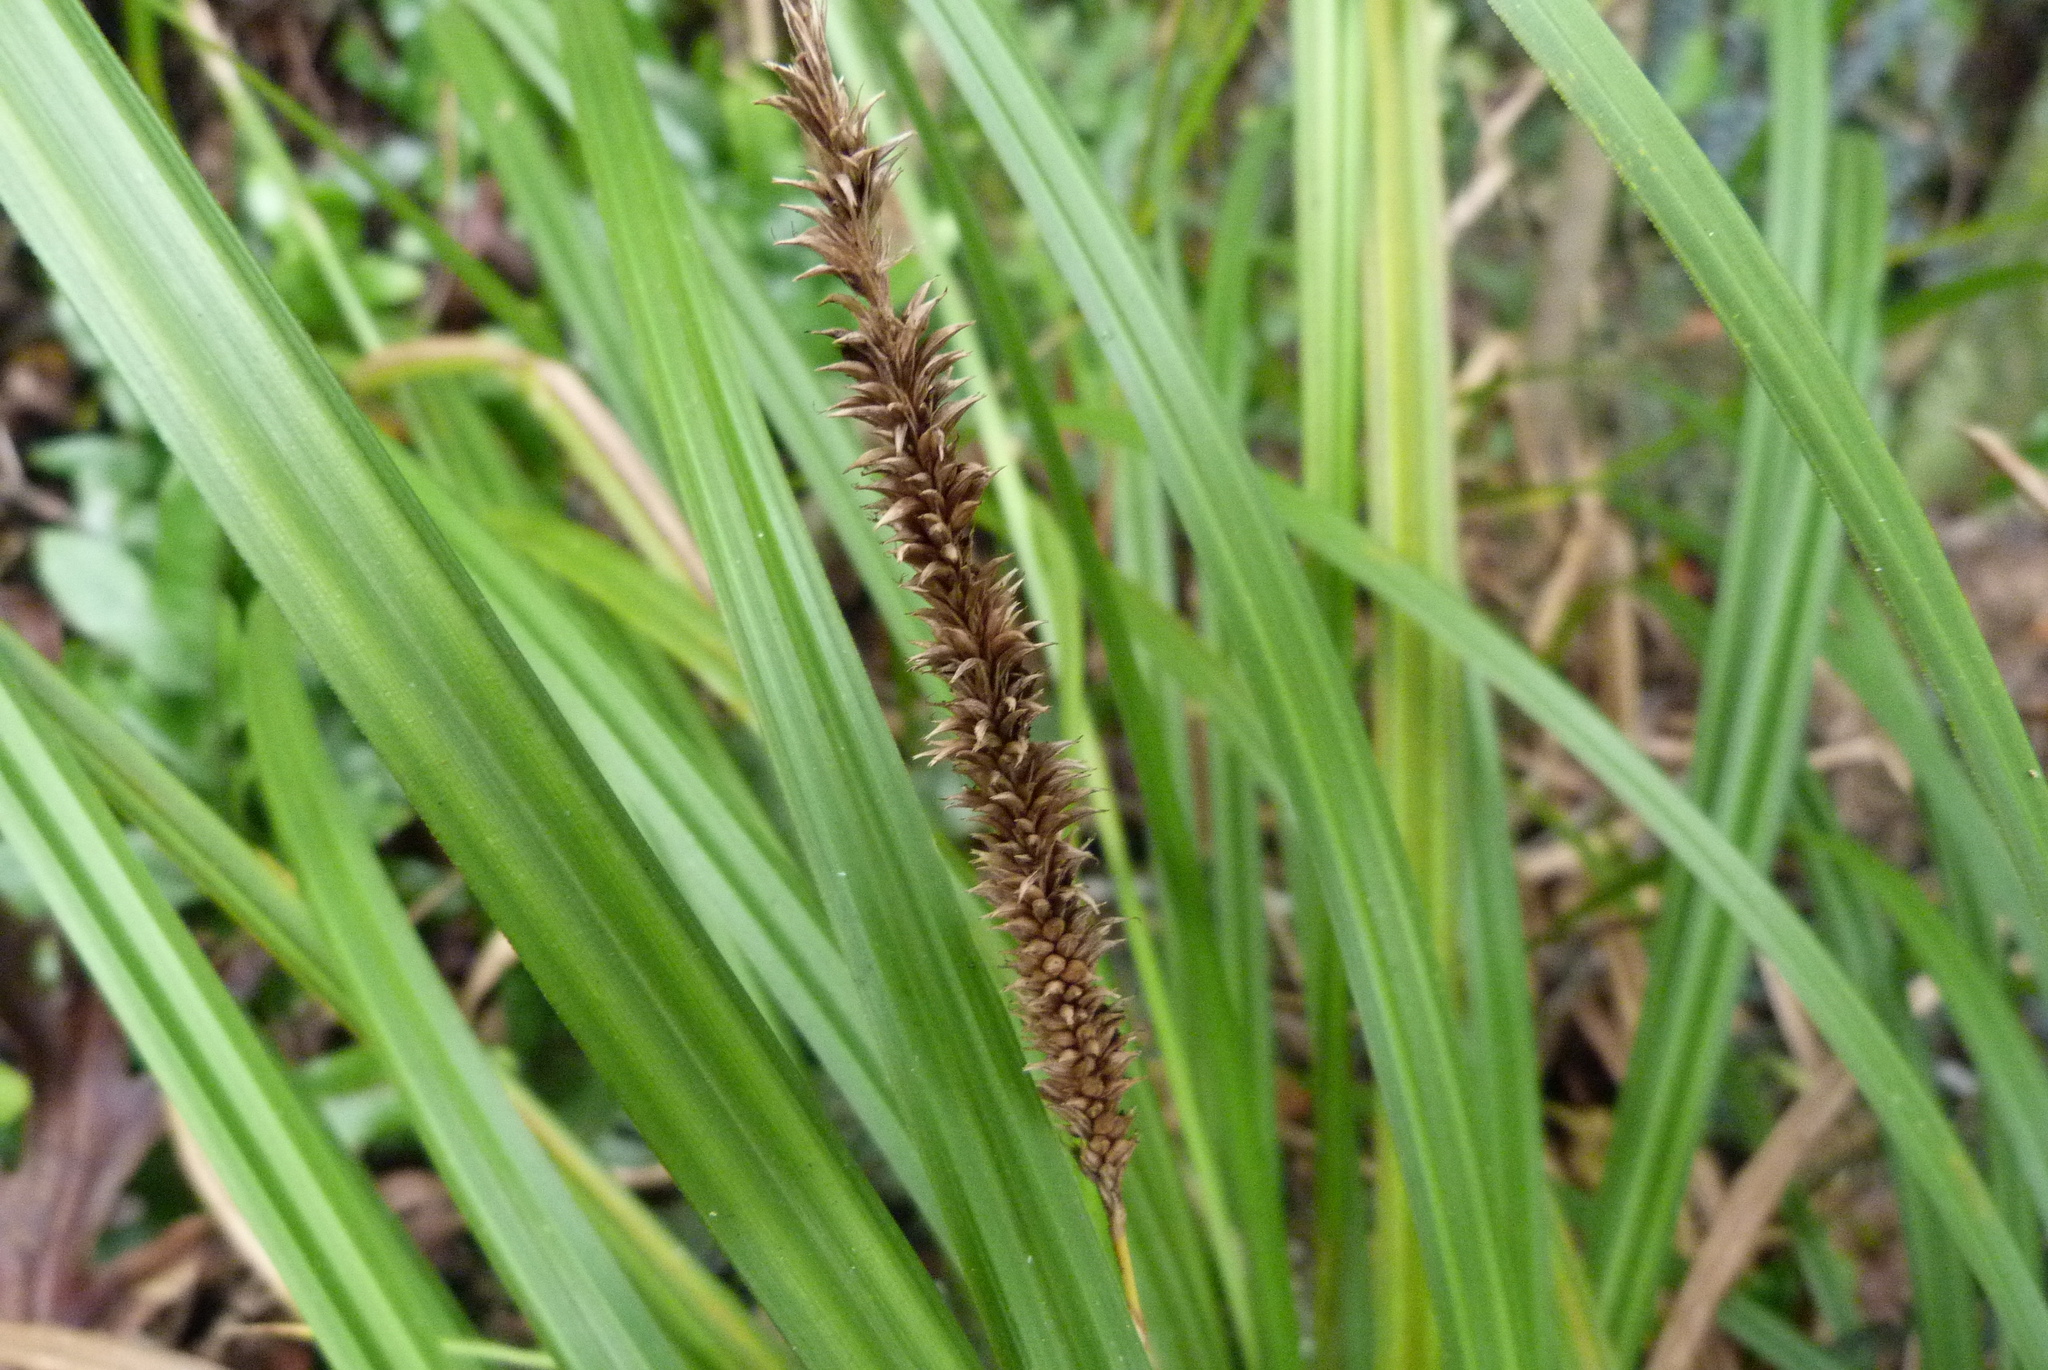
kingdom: Plantae
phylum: Tracheophyta
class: Liliopsida
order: Poales
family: Cyperaceae
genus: Carex
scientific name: Carex forsteri
